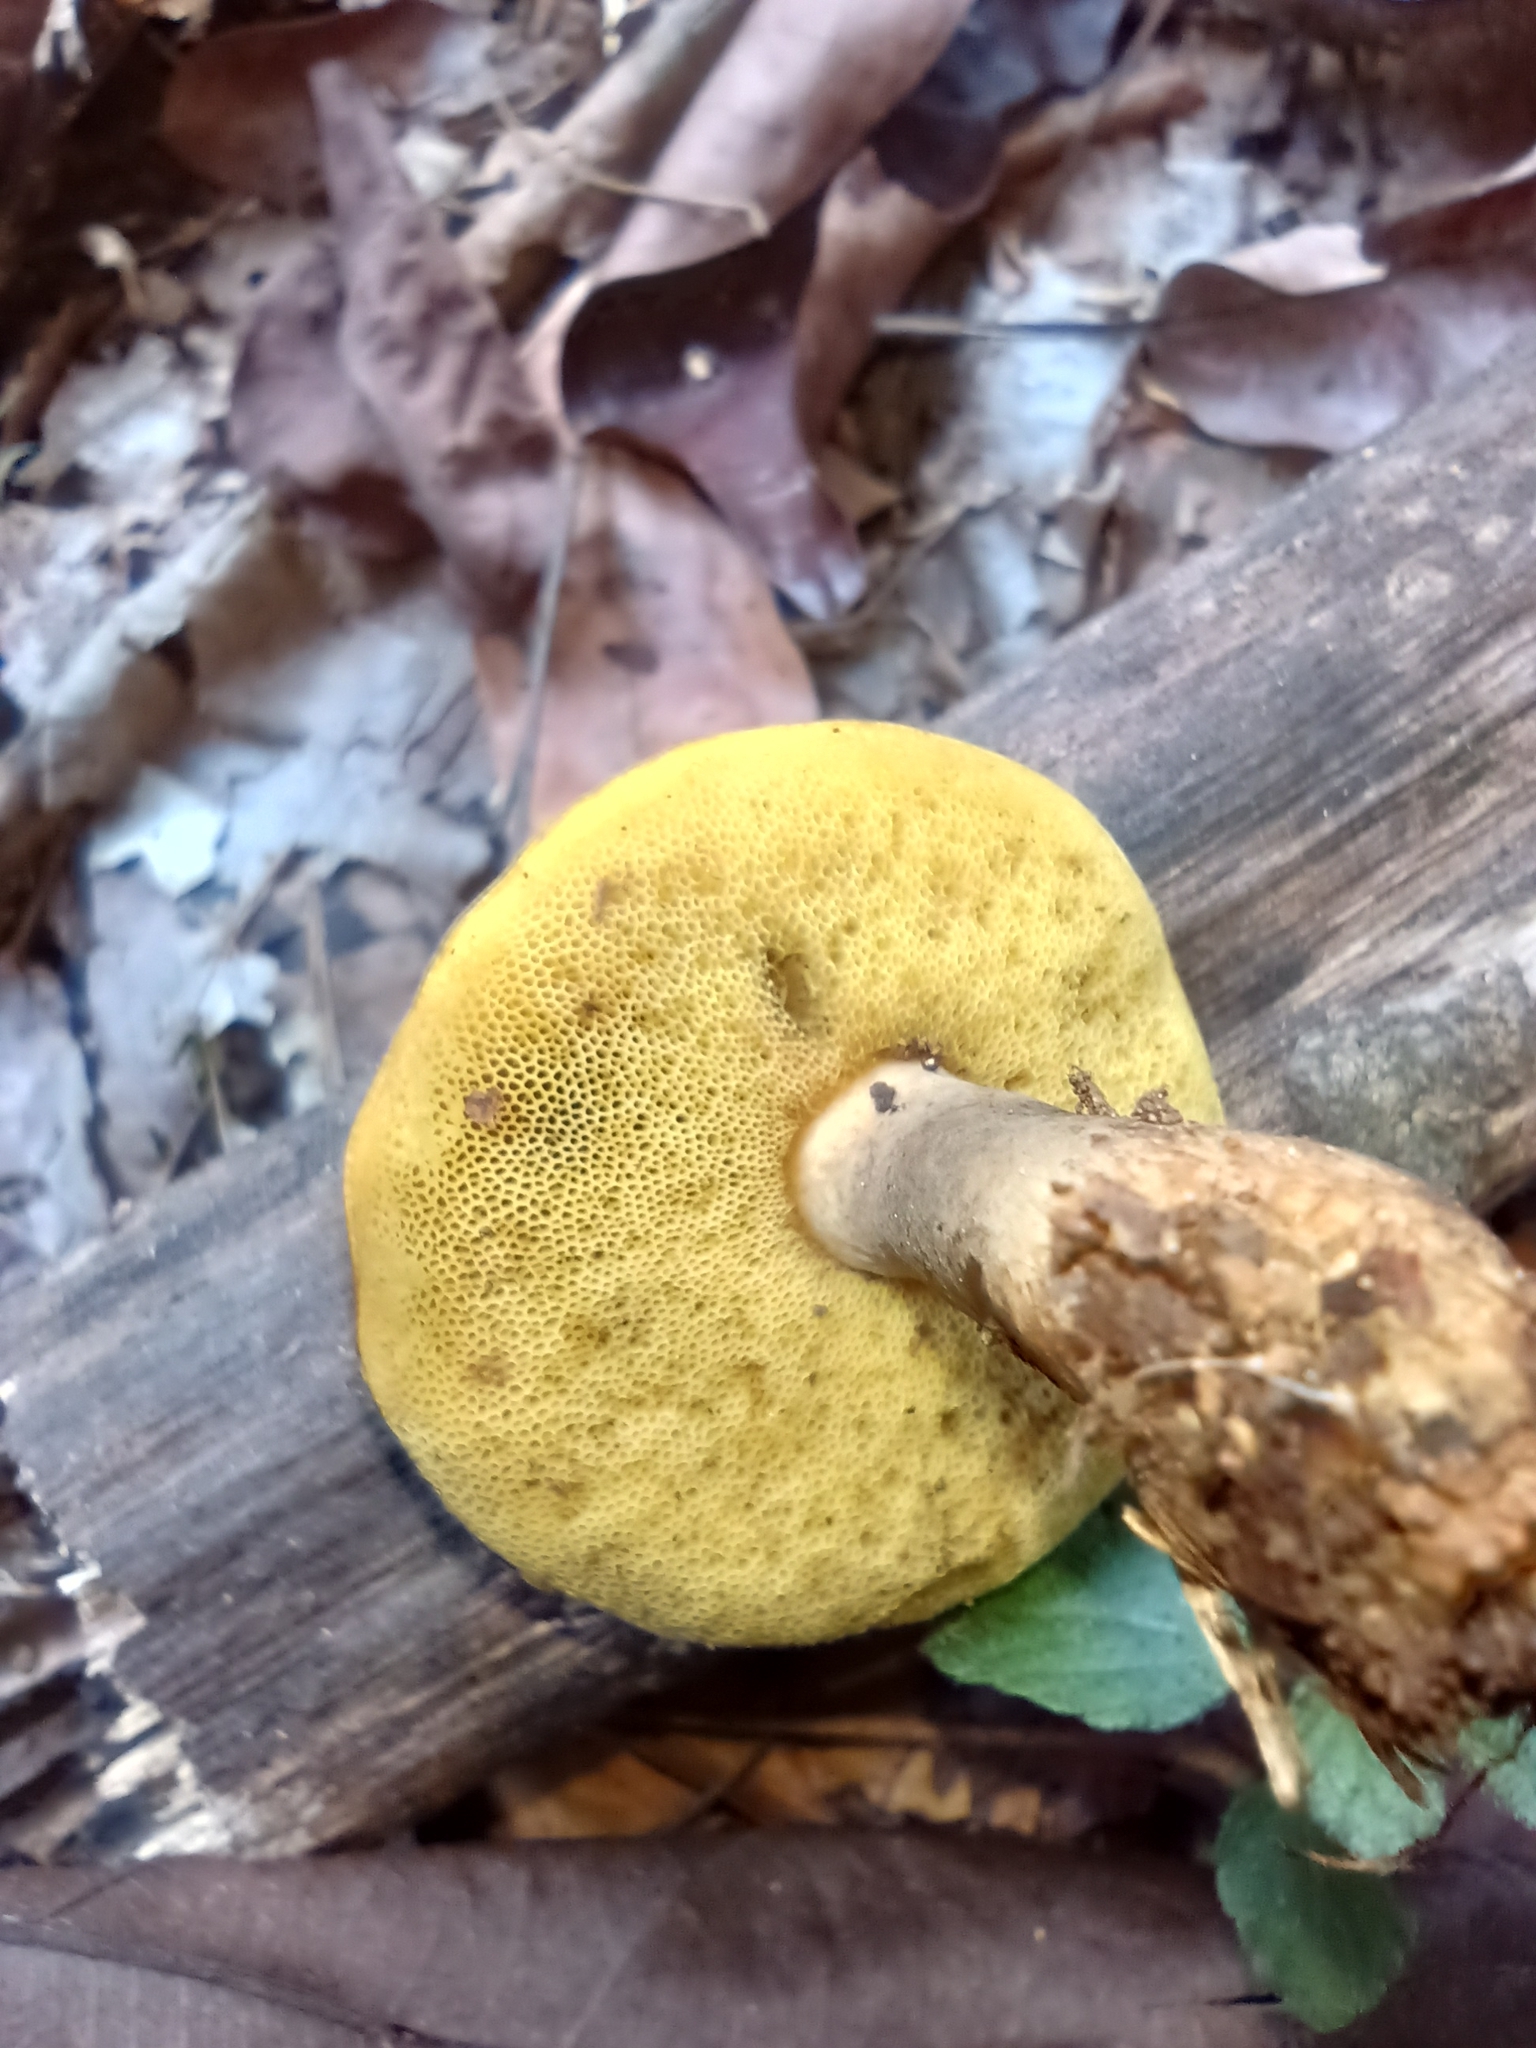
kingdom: Fungi
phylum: Basidiomycota
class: Agaricomycetes
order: Boletales
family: Boletinellaceae
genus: Phlebopus
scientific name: Phlebopus beniensis
